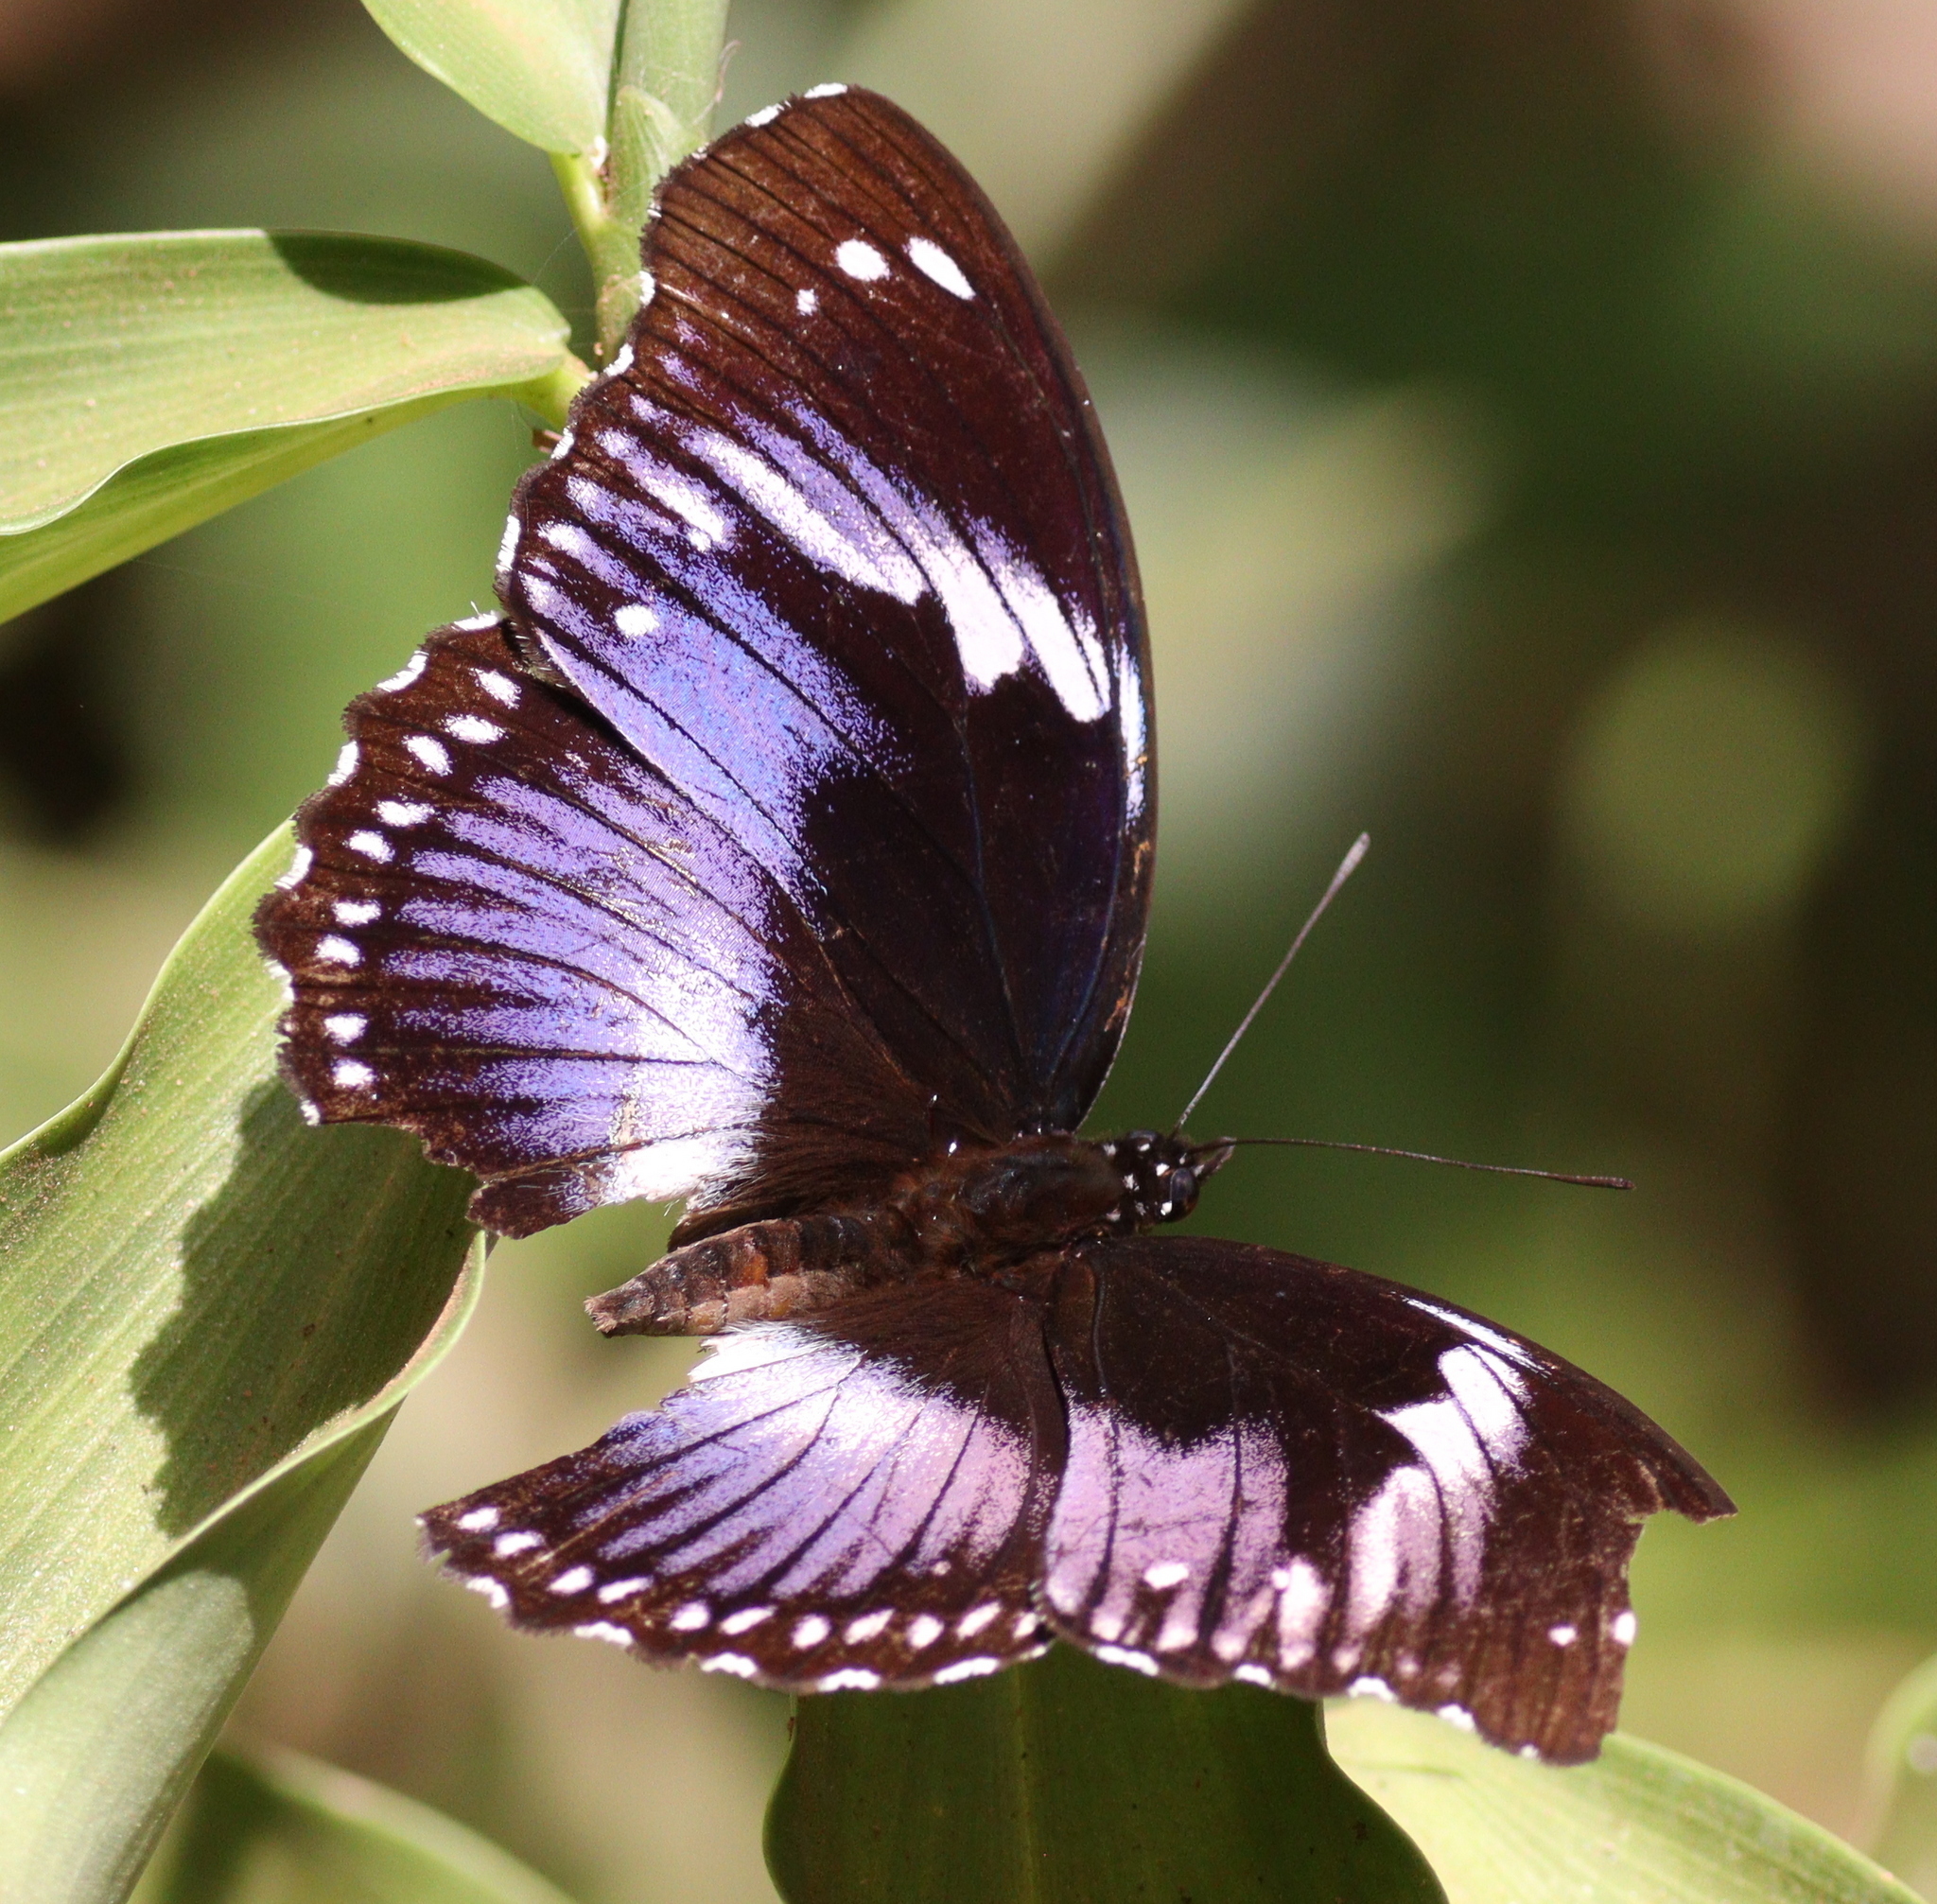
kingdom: Animalia
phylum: Arthropoda
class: Insecta
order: Lepidoptera
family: Nymphalidae
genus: Hypolimnas
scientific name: Hypolimnas salmacis
